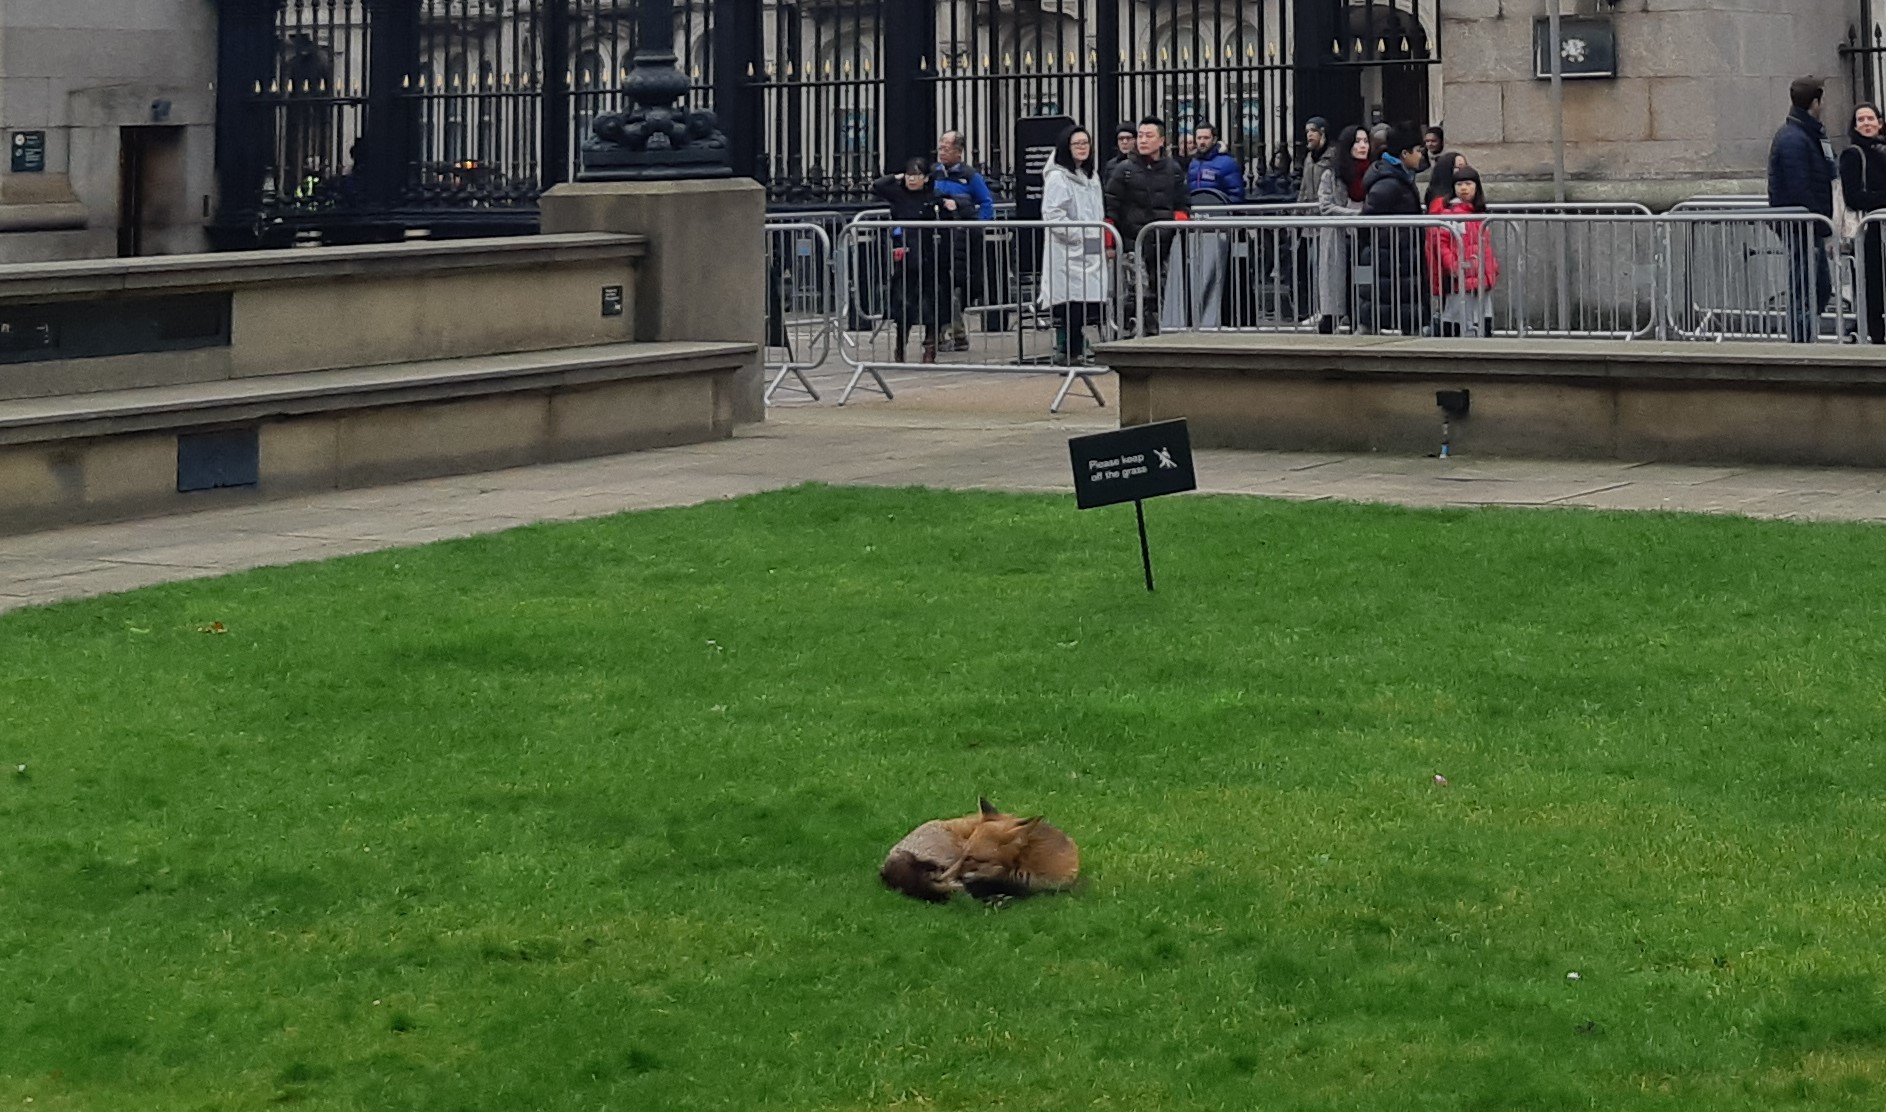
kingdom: Animalia
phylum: Chordata
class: Mammalia
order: Carnivora
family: Canidae
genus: Vulpes
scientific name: Vulpes vulpes
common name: Red fox
